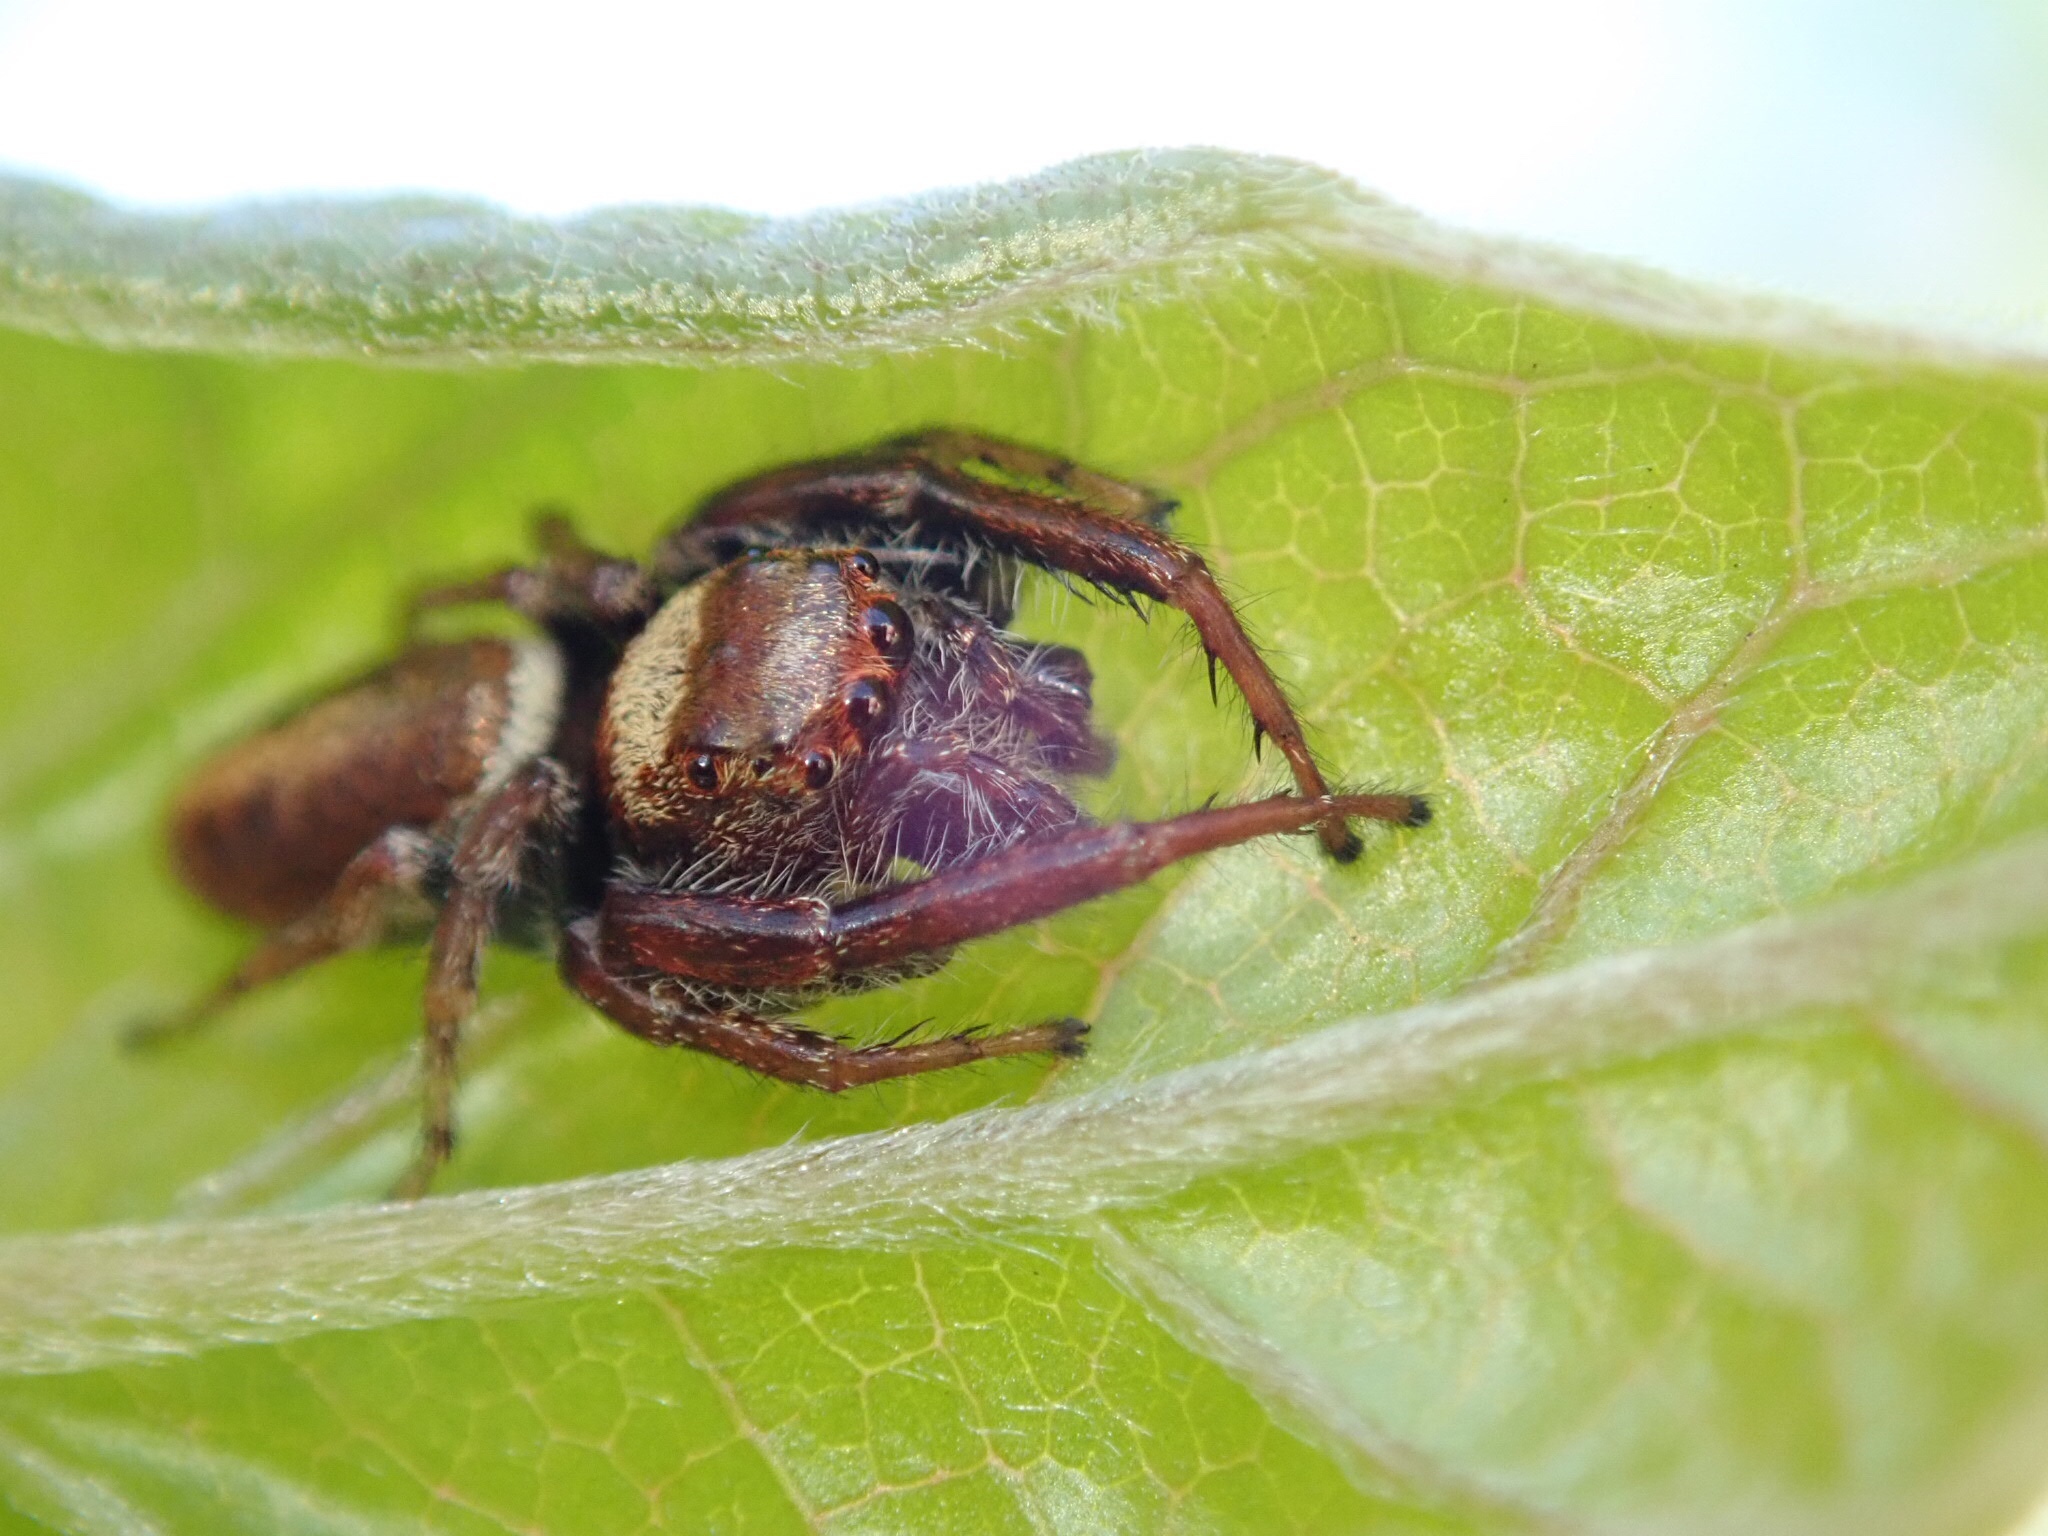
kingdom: Animalia
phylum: Arthropoda
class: Arachnida
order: Araneae
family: Salticidae
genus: Opisthoncus
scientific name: Opisthoncus polyphemus
